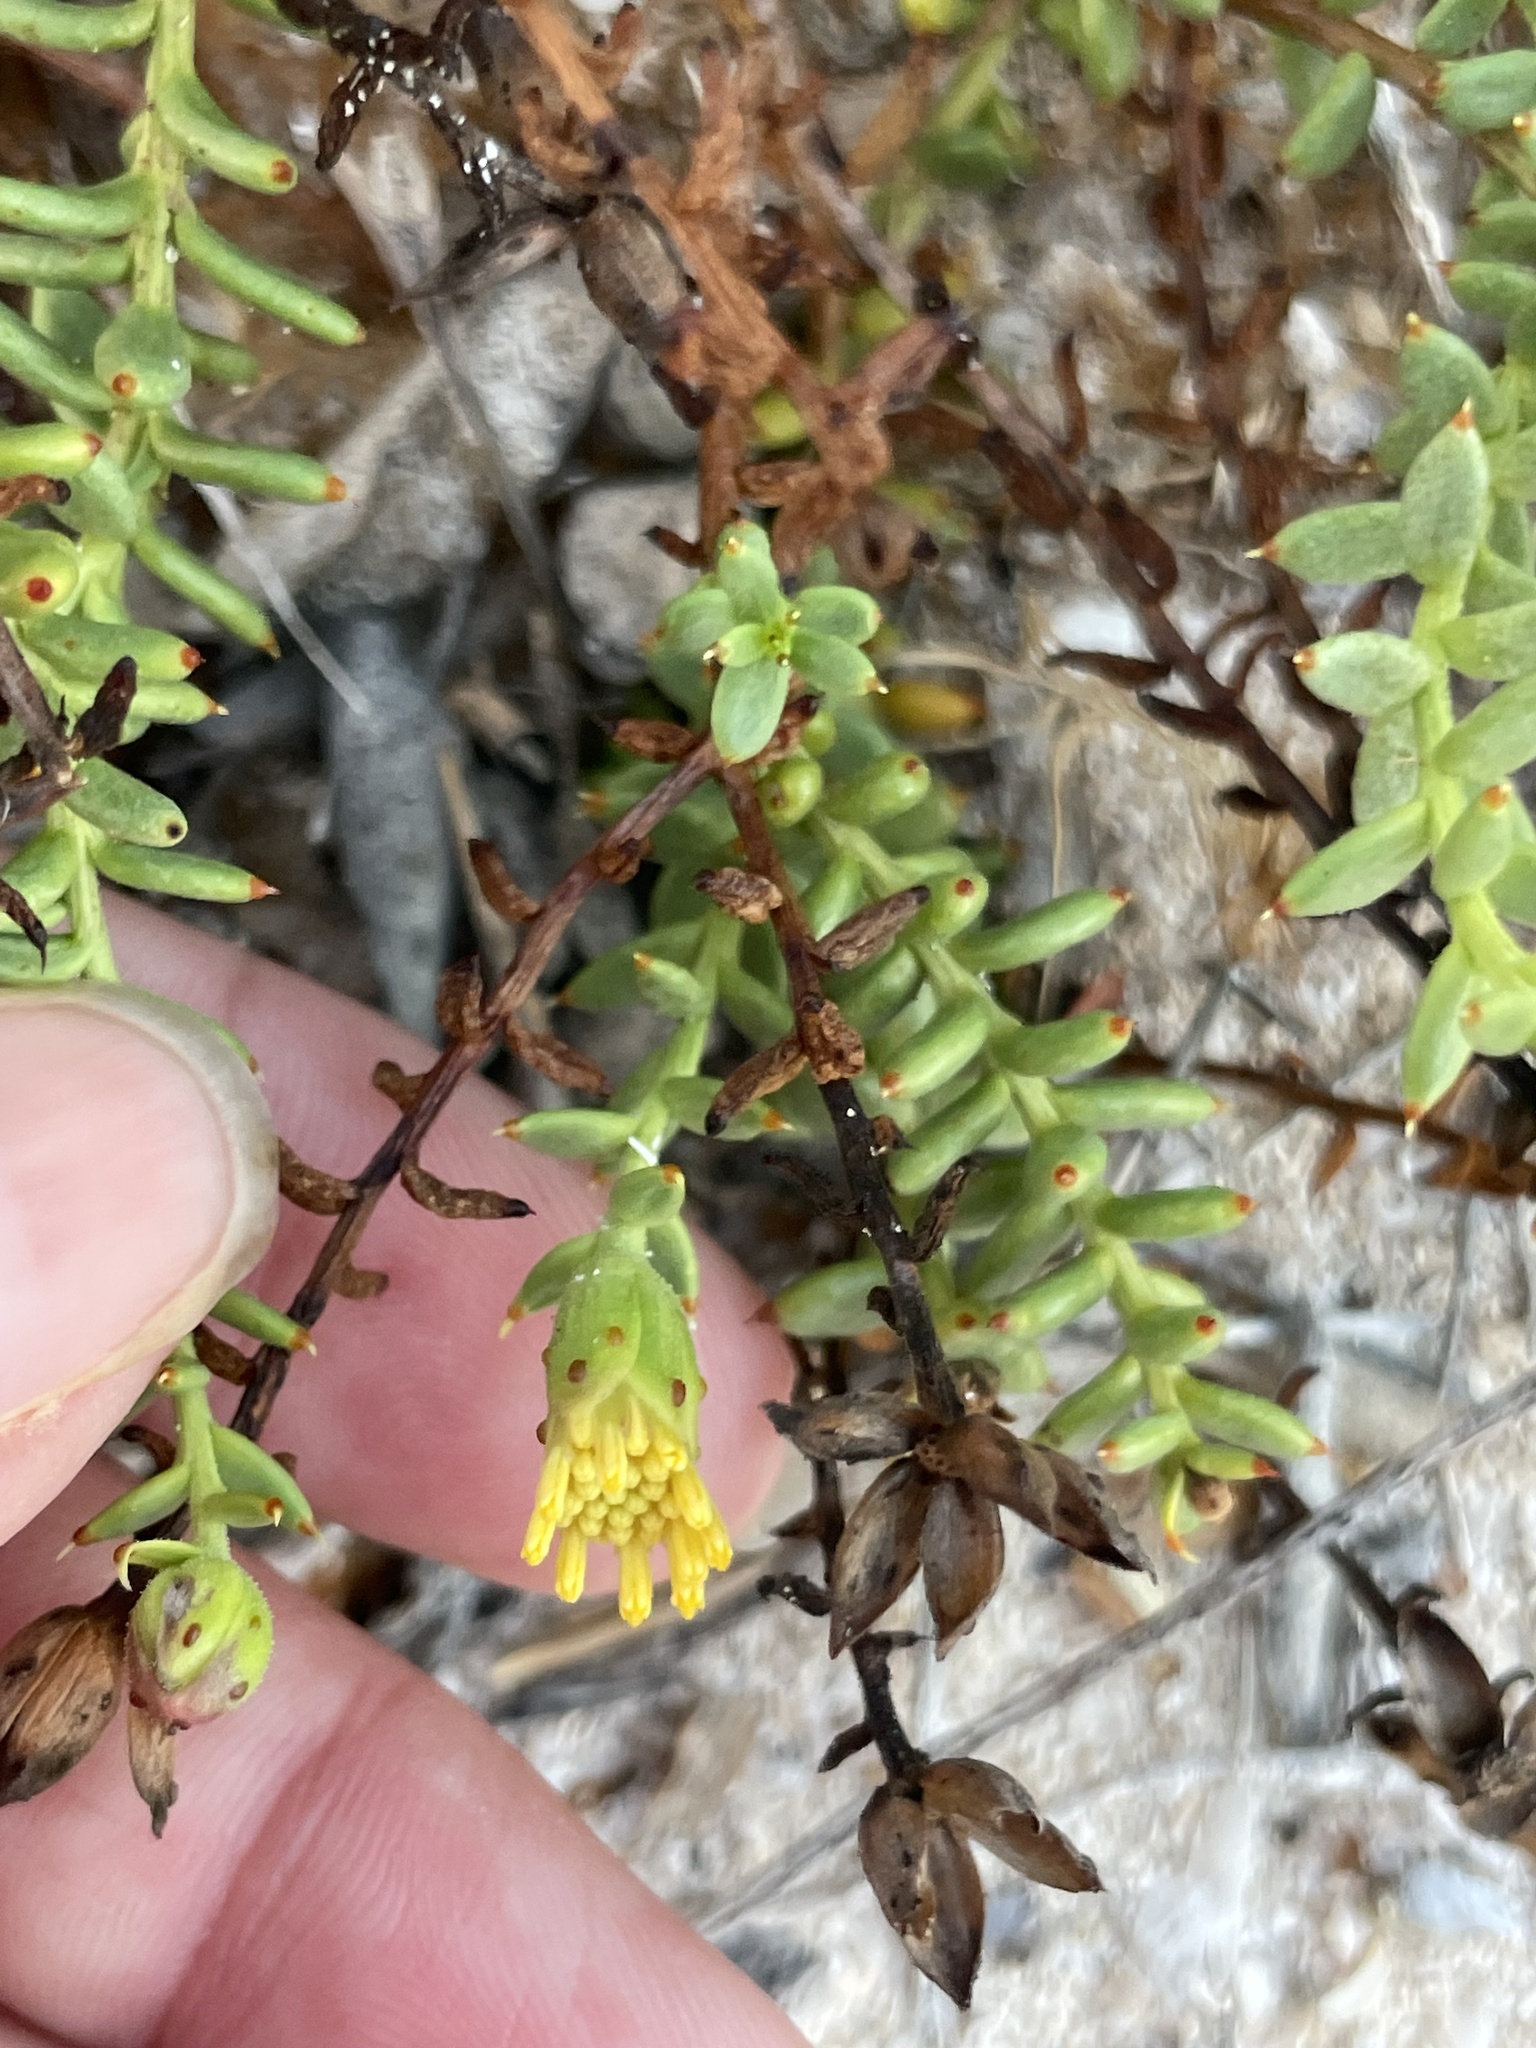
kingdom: Plantae
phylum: Tracheophyta
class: Magnoliopsida
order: Asterales
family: Asteraceae
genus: Bajacalia
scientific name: Bajacalia crassifolia
